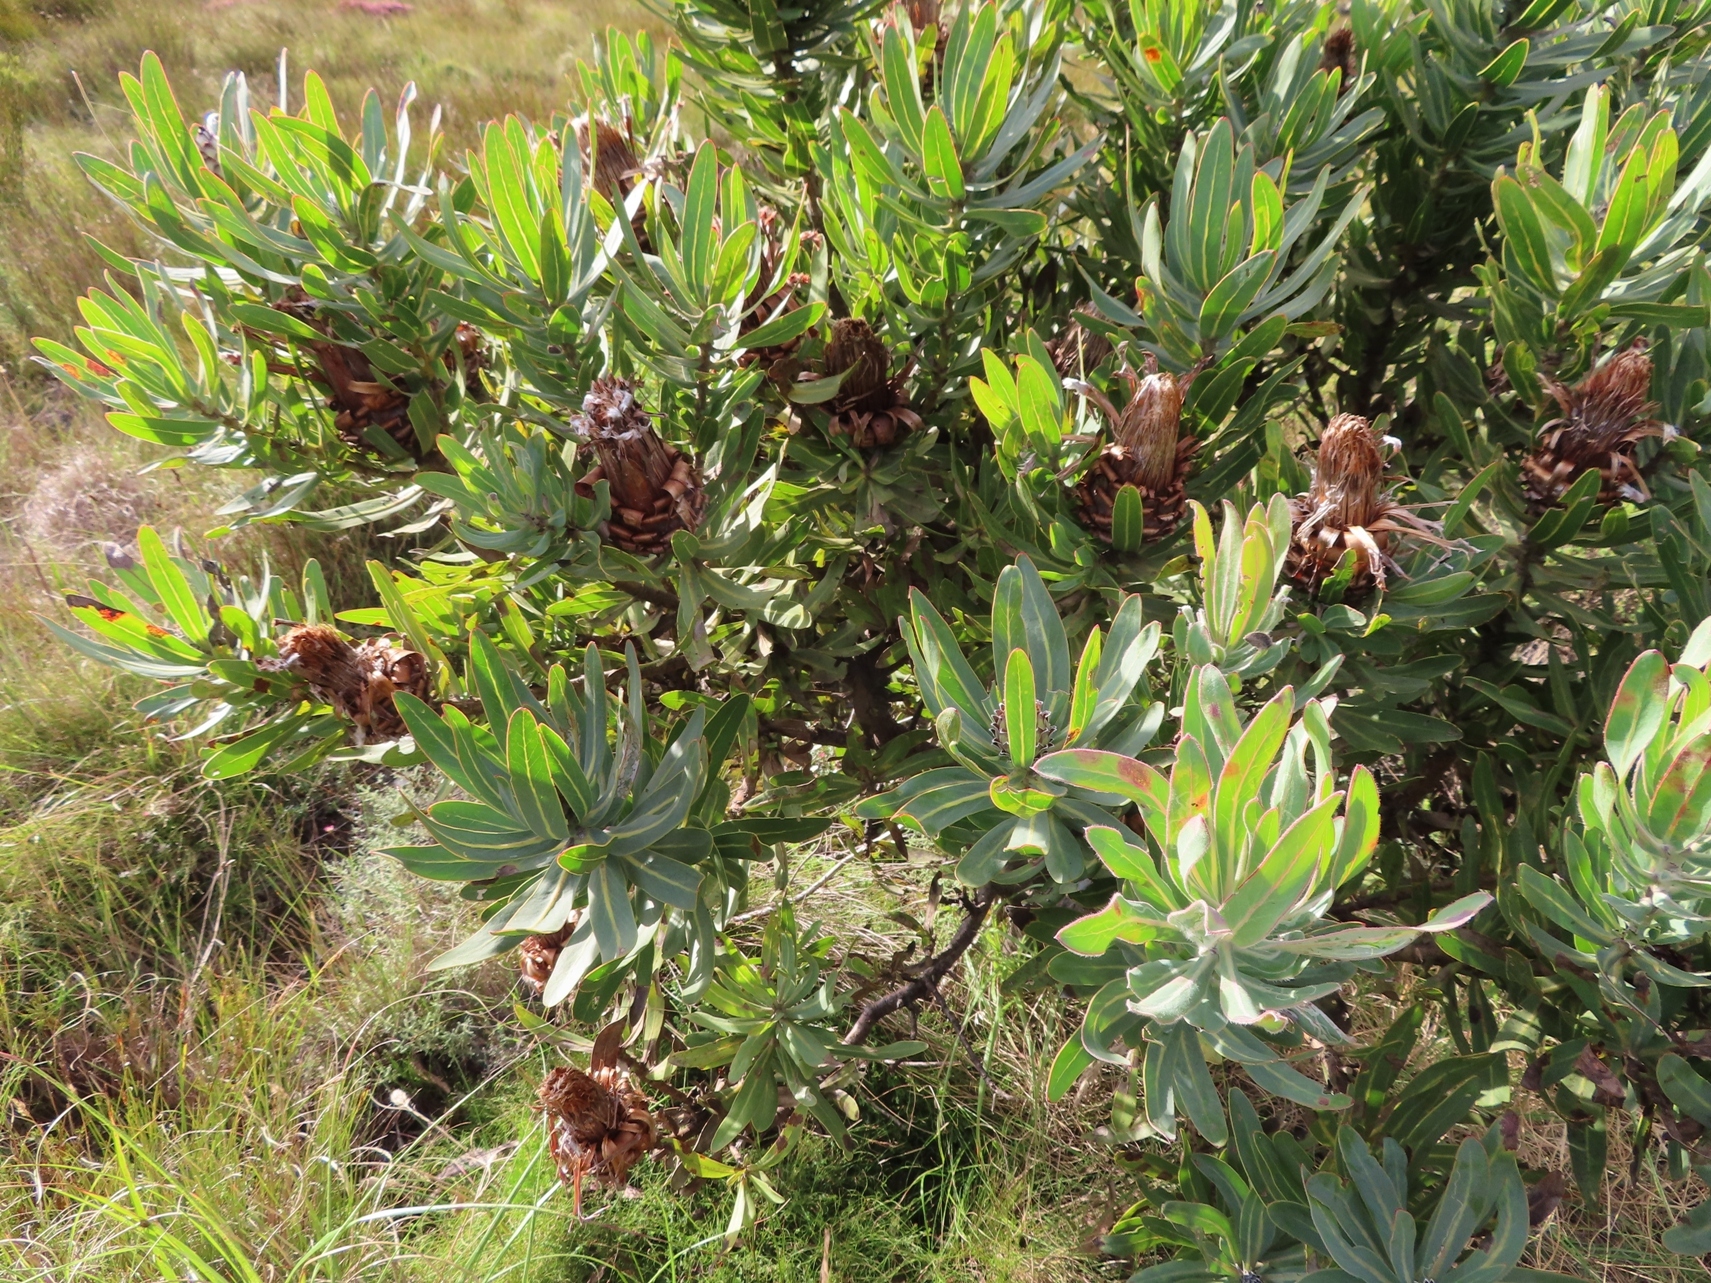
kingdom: Plantae
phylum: Tracheophyta
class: Magnoliopsida
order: Proteales
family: Proteaceae
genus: Protea
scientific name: Protea neriifolia
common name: Blue sugarbush
